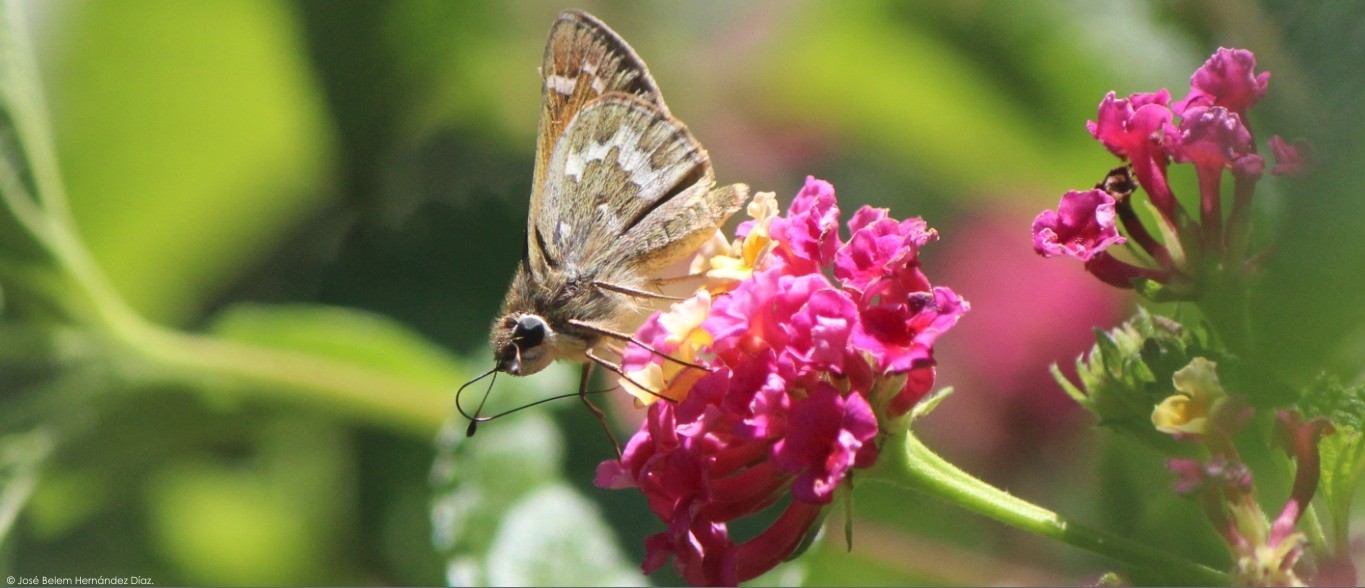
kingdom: Animalia
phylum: Arthropoda
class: Insecta
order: Lepidoptera
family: Hesperiidae
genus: Atalopedes
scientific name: Atalopedes
